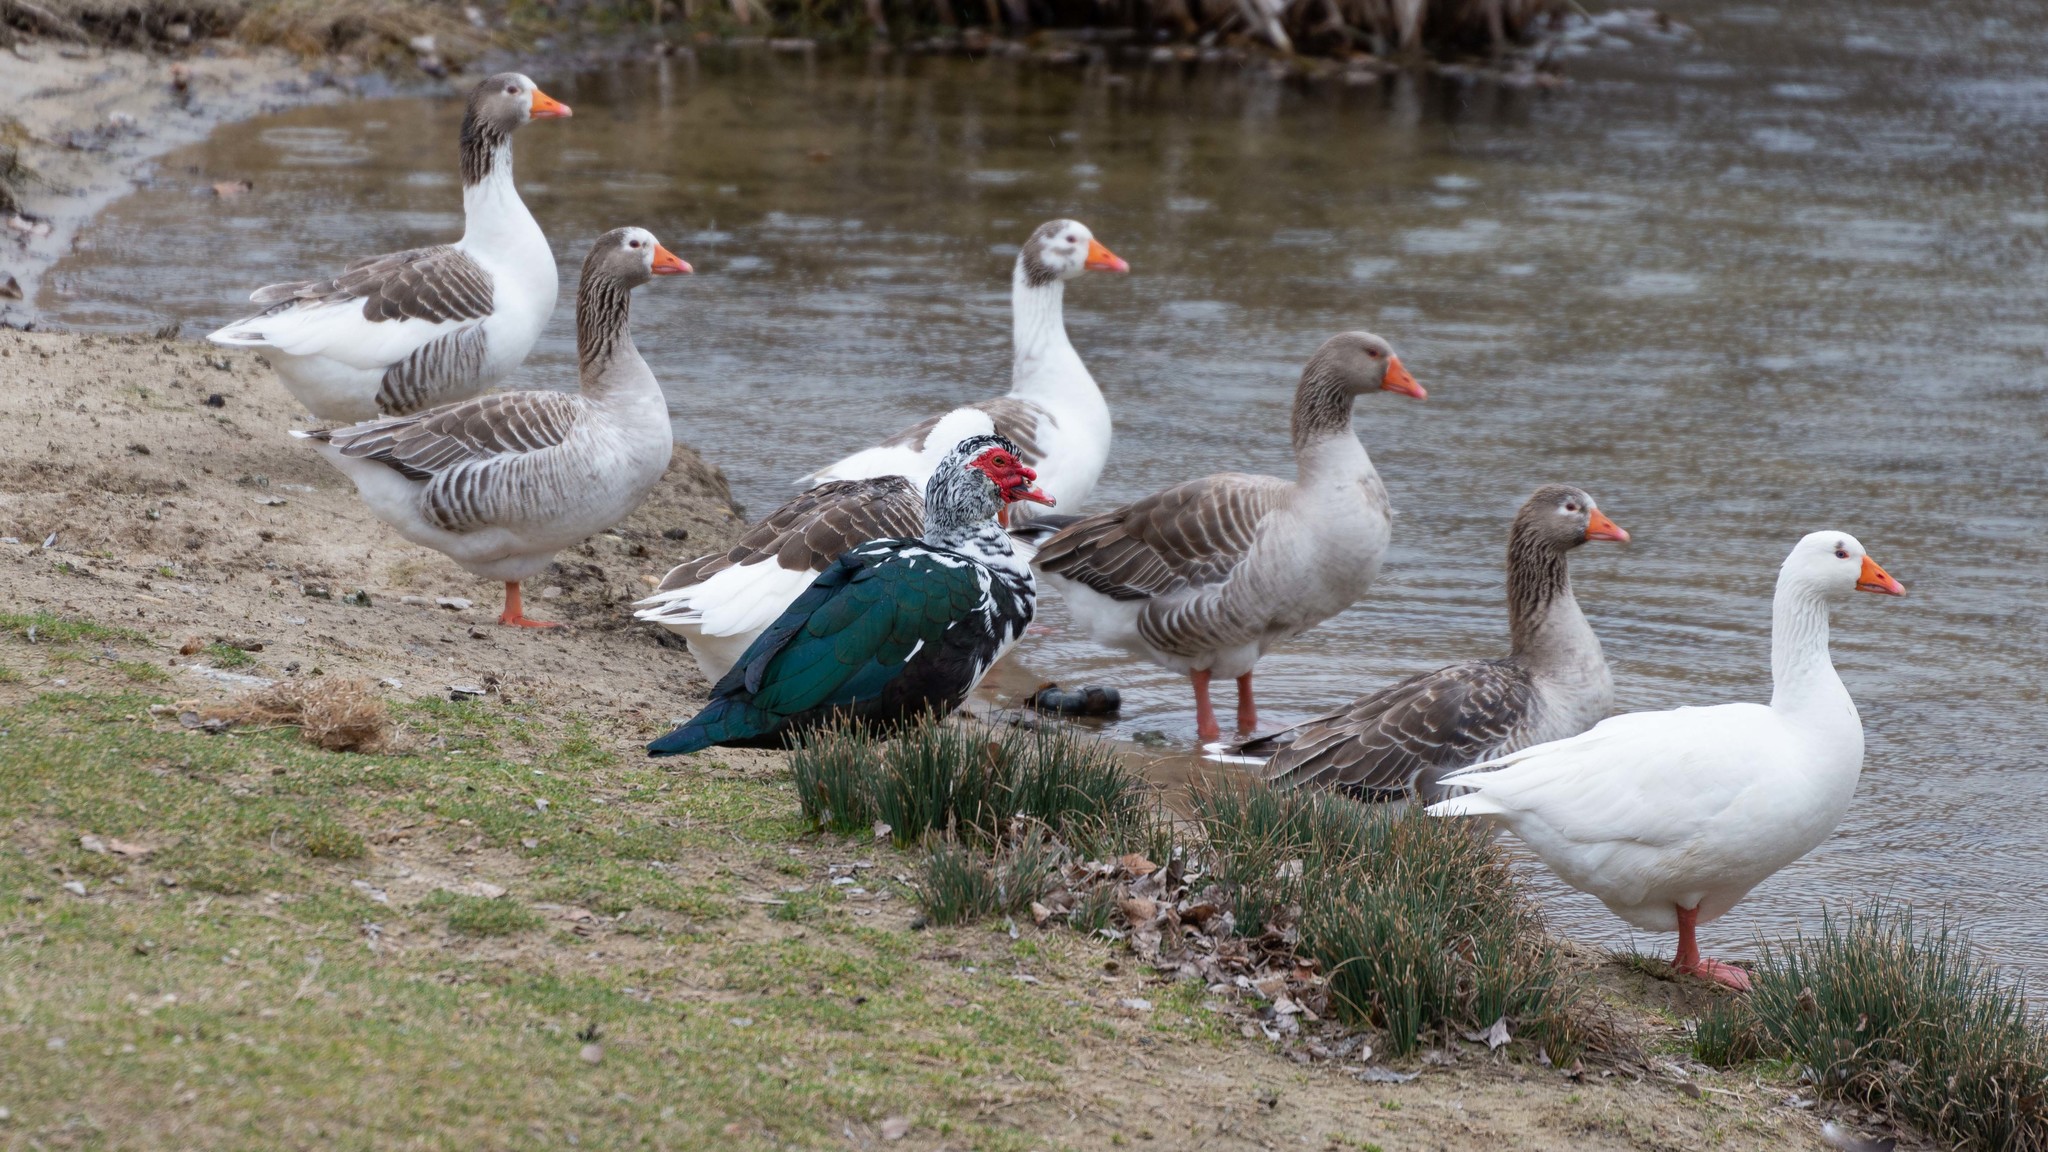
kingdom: Animalia
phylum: Chordata
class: Aves
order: Anseriformes
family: Anatidae
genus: Anser
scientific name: Anser anser
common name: Greylag goose
